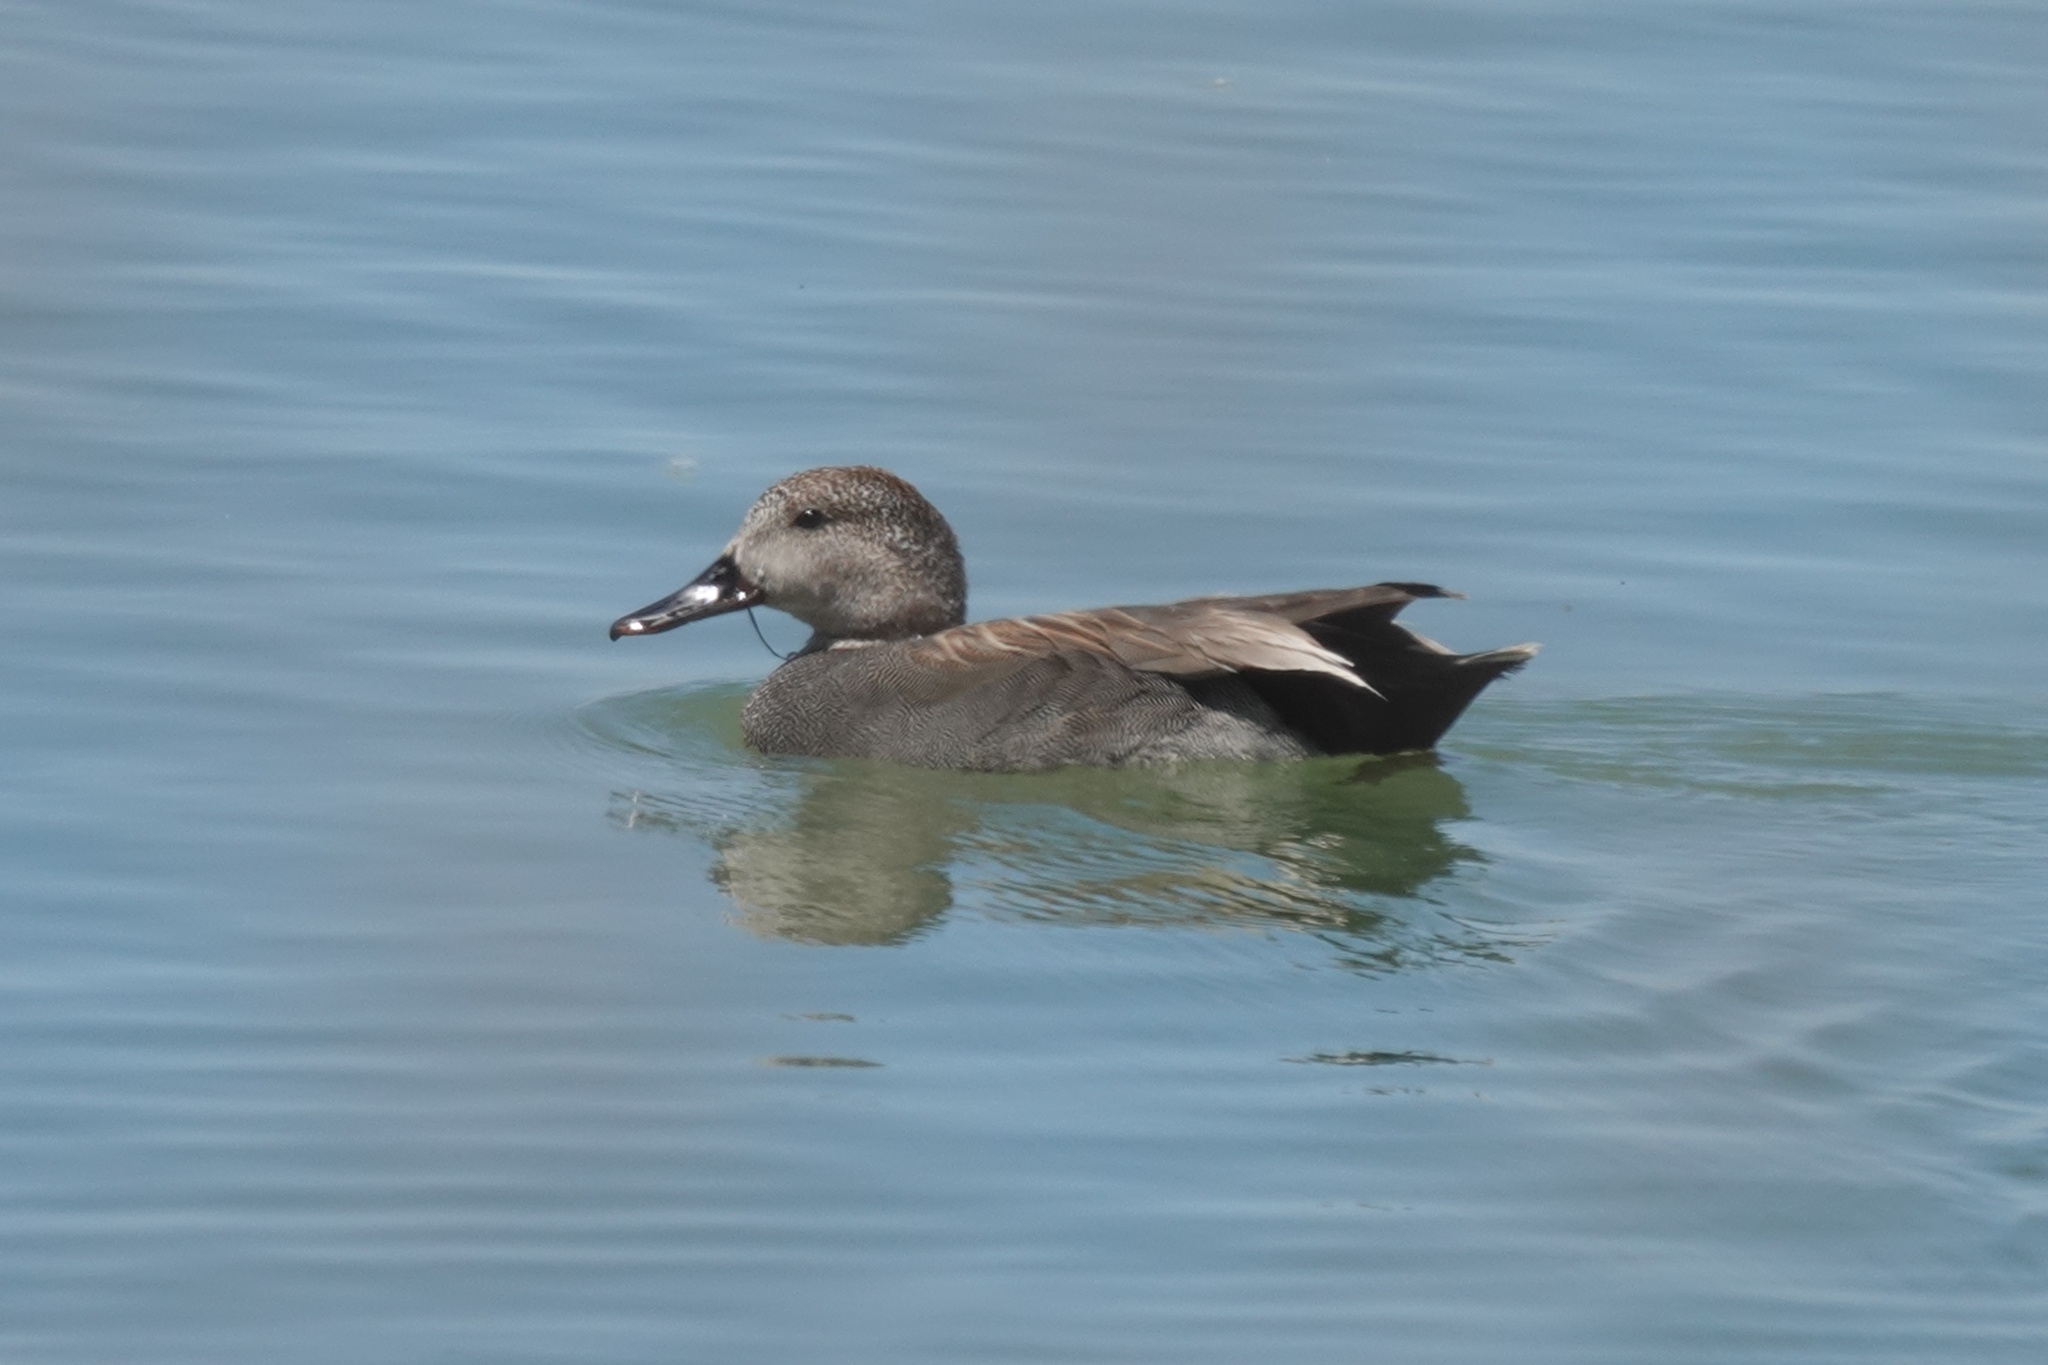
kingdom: Animalia
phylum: Chordata
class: Aves
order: Anseriformes
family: Anatidae
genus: Mareca
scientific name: Mareca strepera
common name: Gadwall
